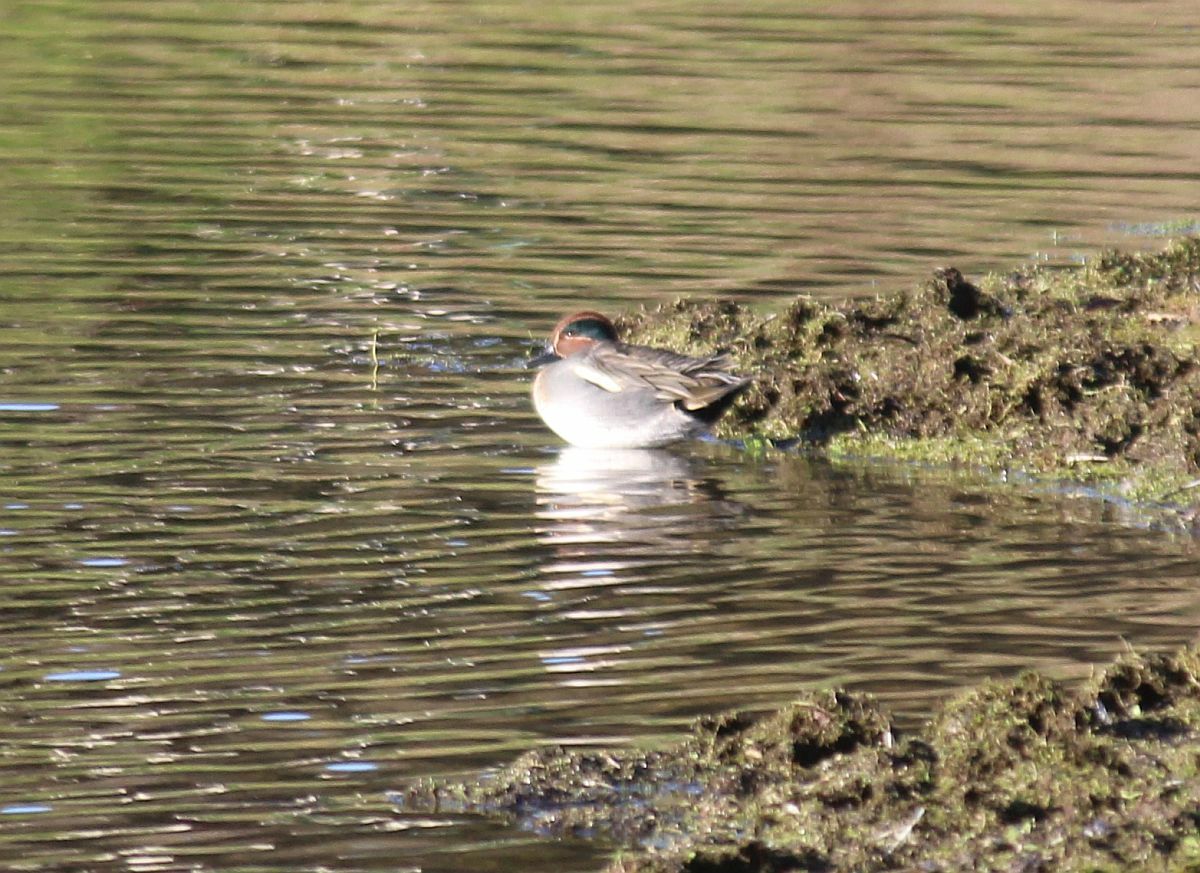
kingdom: Animalia
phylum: Chordata
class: Aves
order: Anseriformes
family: Anatidae
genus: Anas
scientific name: Anas crecca
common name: Eurasian teal
